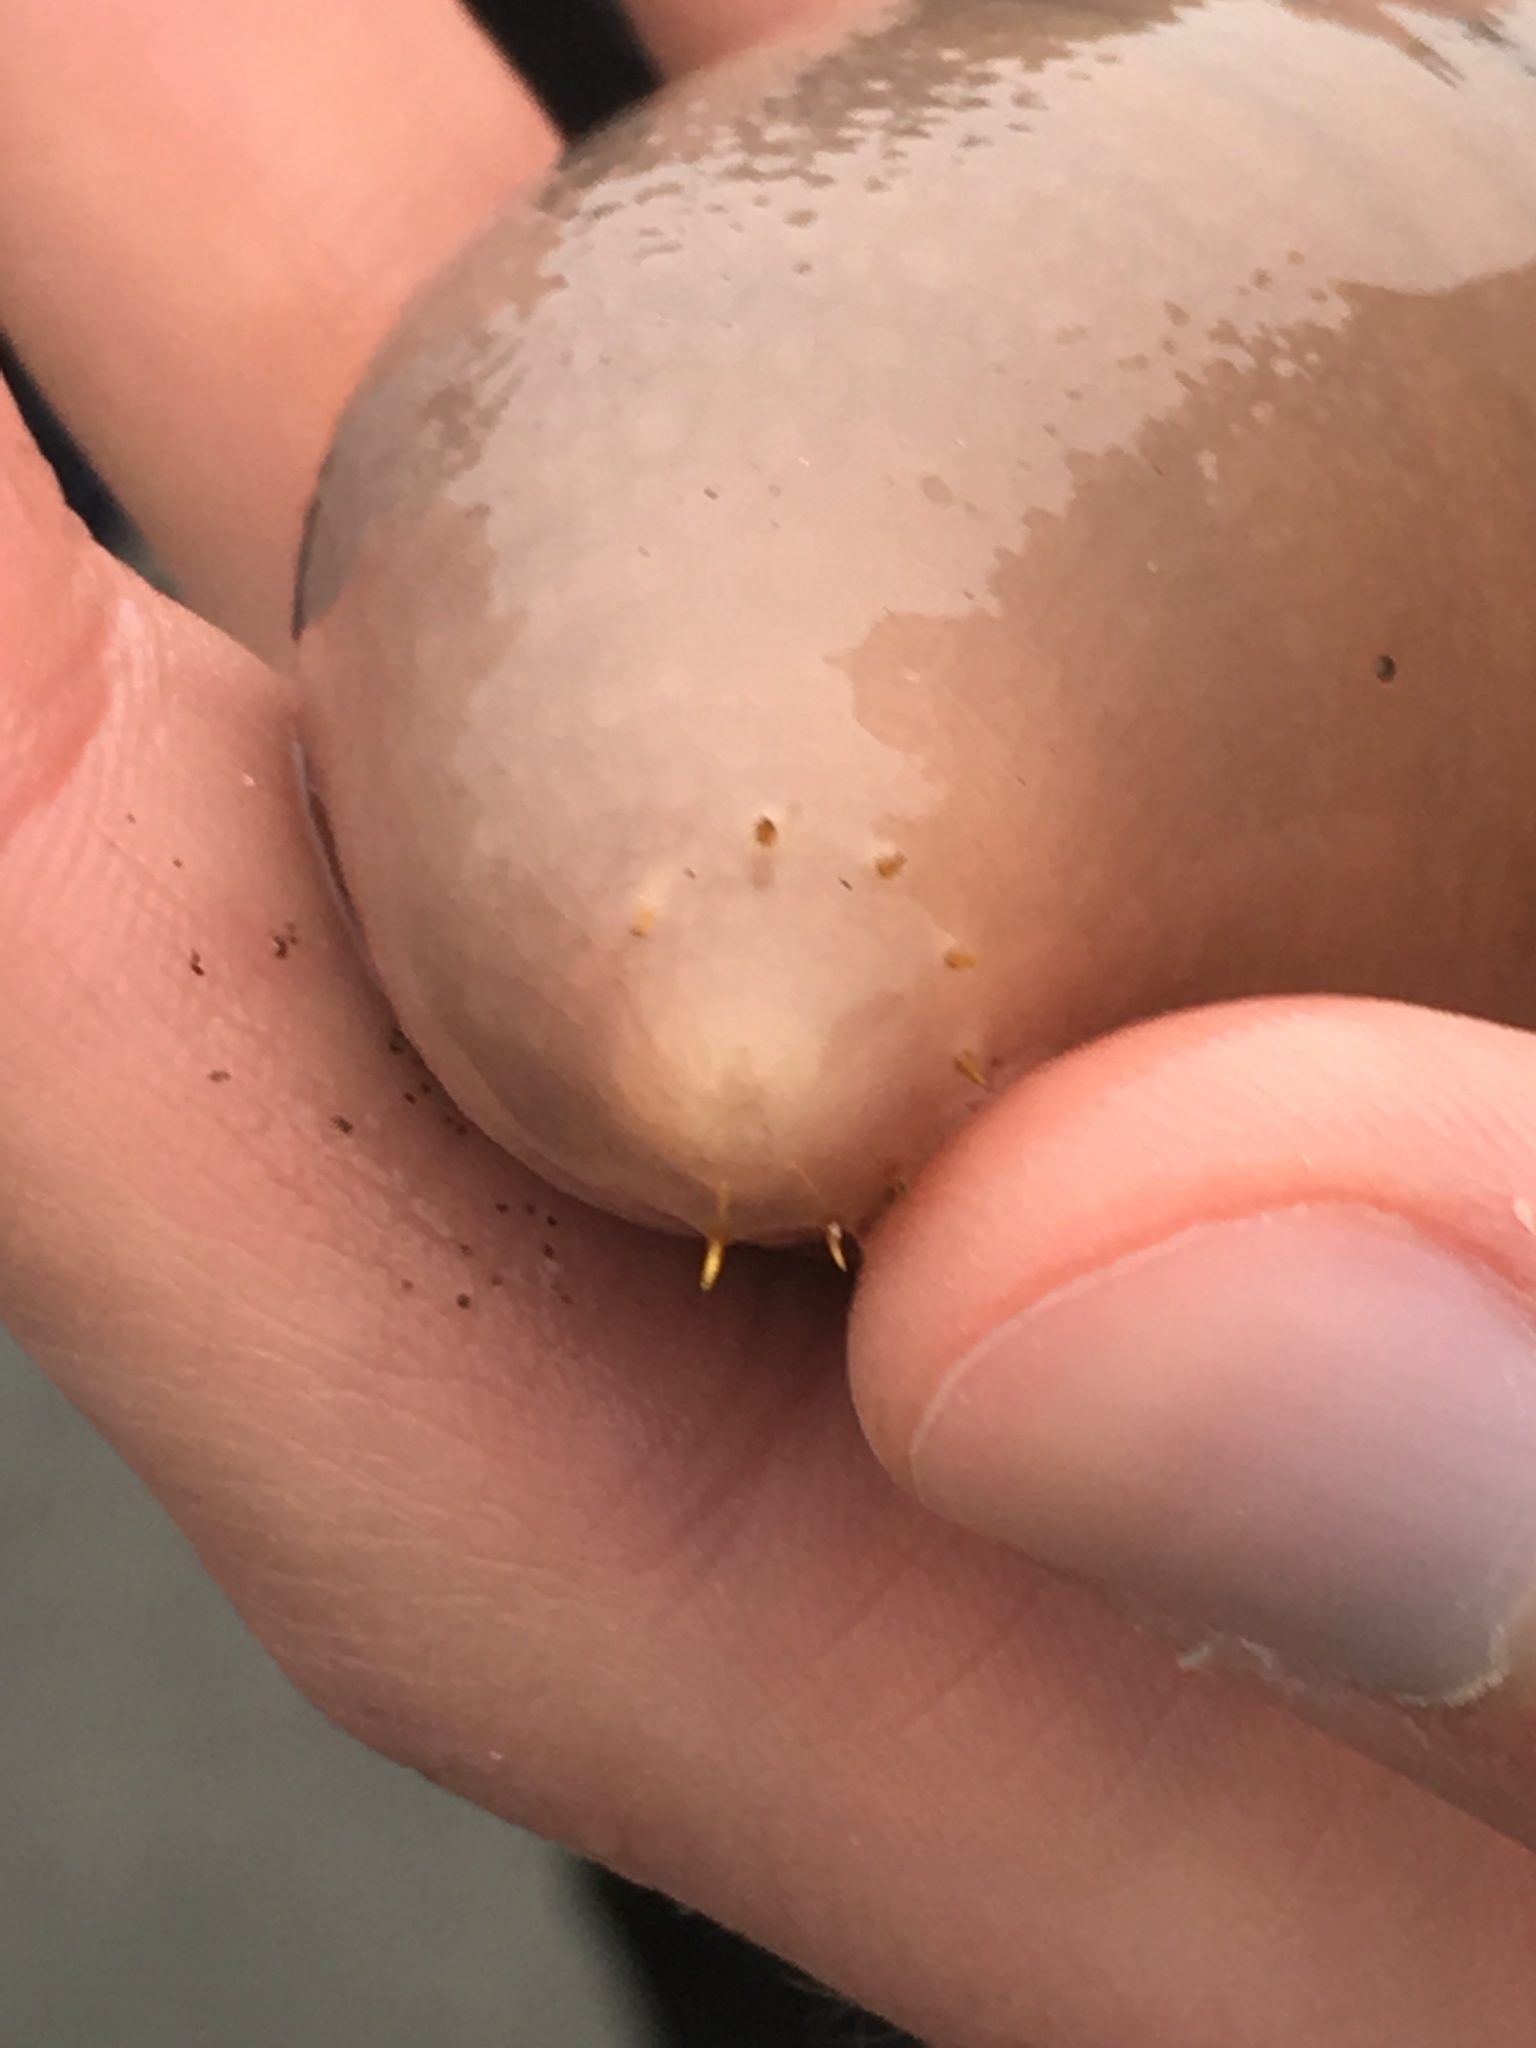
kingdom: Animalia
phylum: Annelida
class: Polychaeta
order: Echiuroidea
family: Urechidae
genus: Urechis
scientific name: Urechis caupo
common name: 'penis fish' or 'penis worm'
